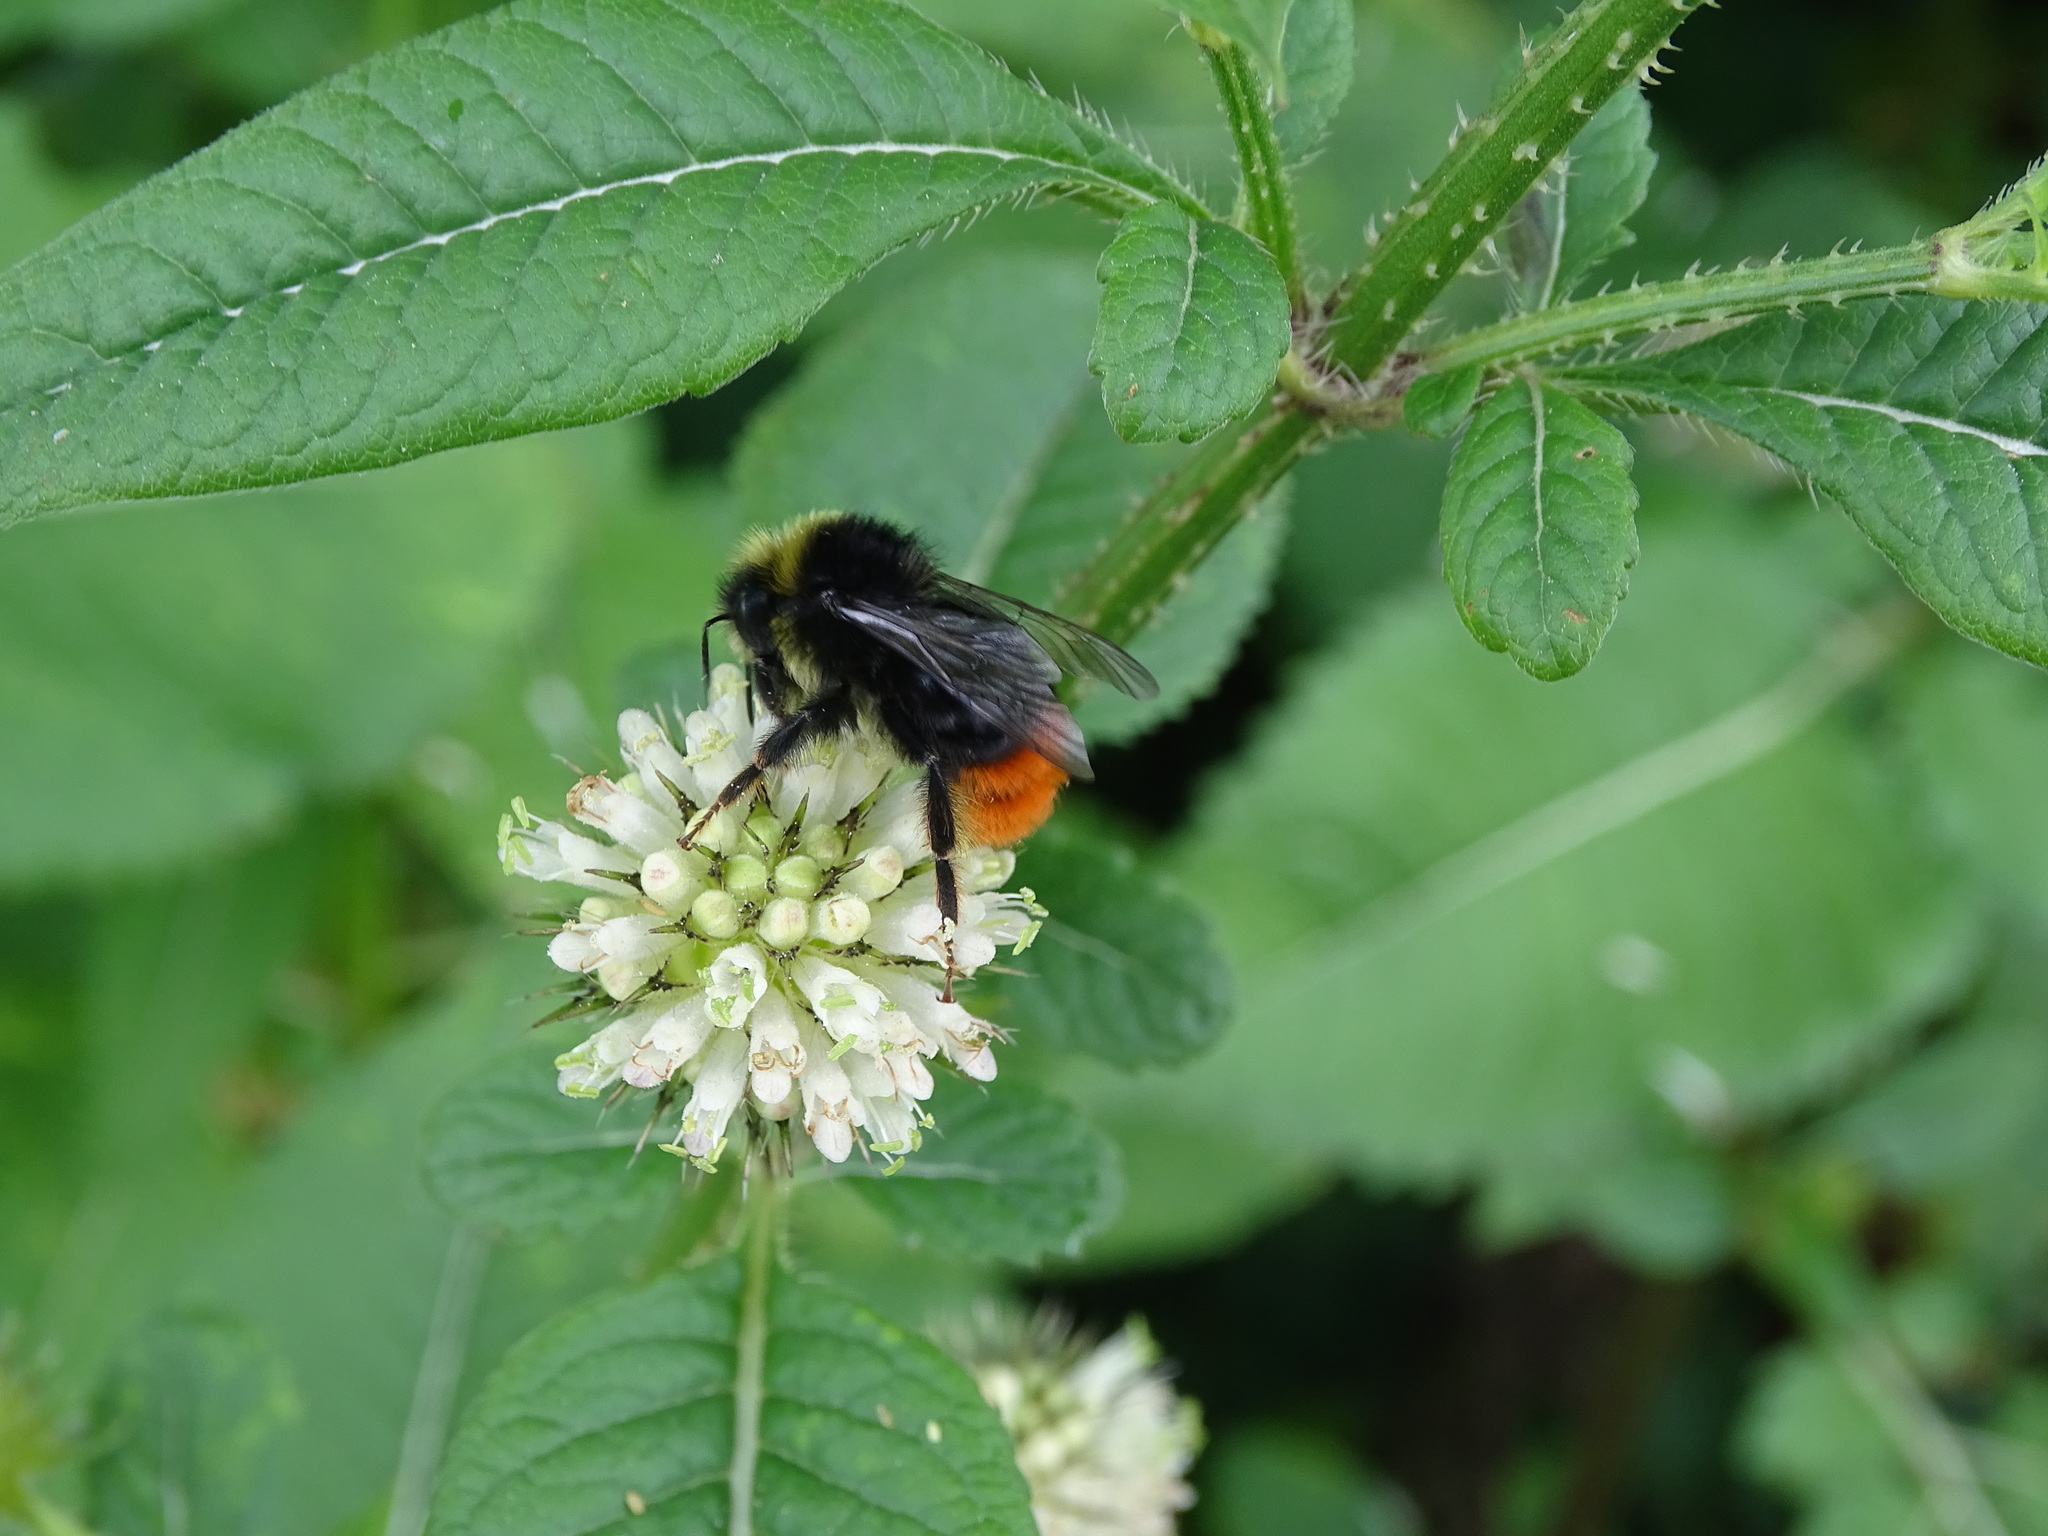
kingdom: Animalia
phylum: Arthropoda
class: Insecta
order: Hymenoptera
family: Apidae
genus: Bombus
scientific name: Bombus lapidarius
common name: Large red-tailed humble-bee
